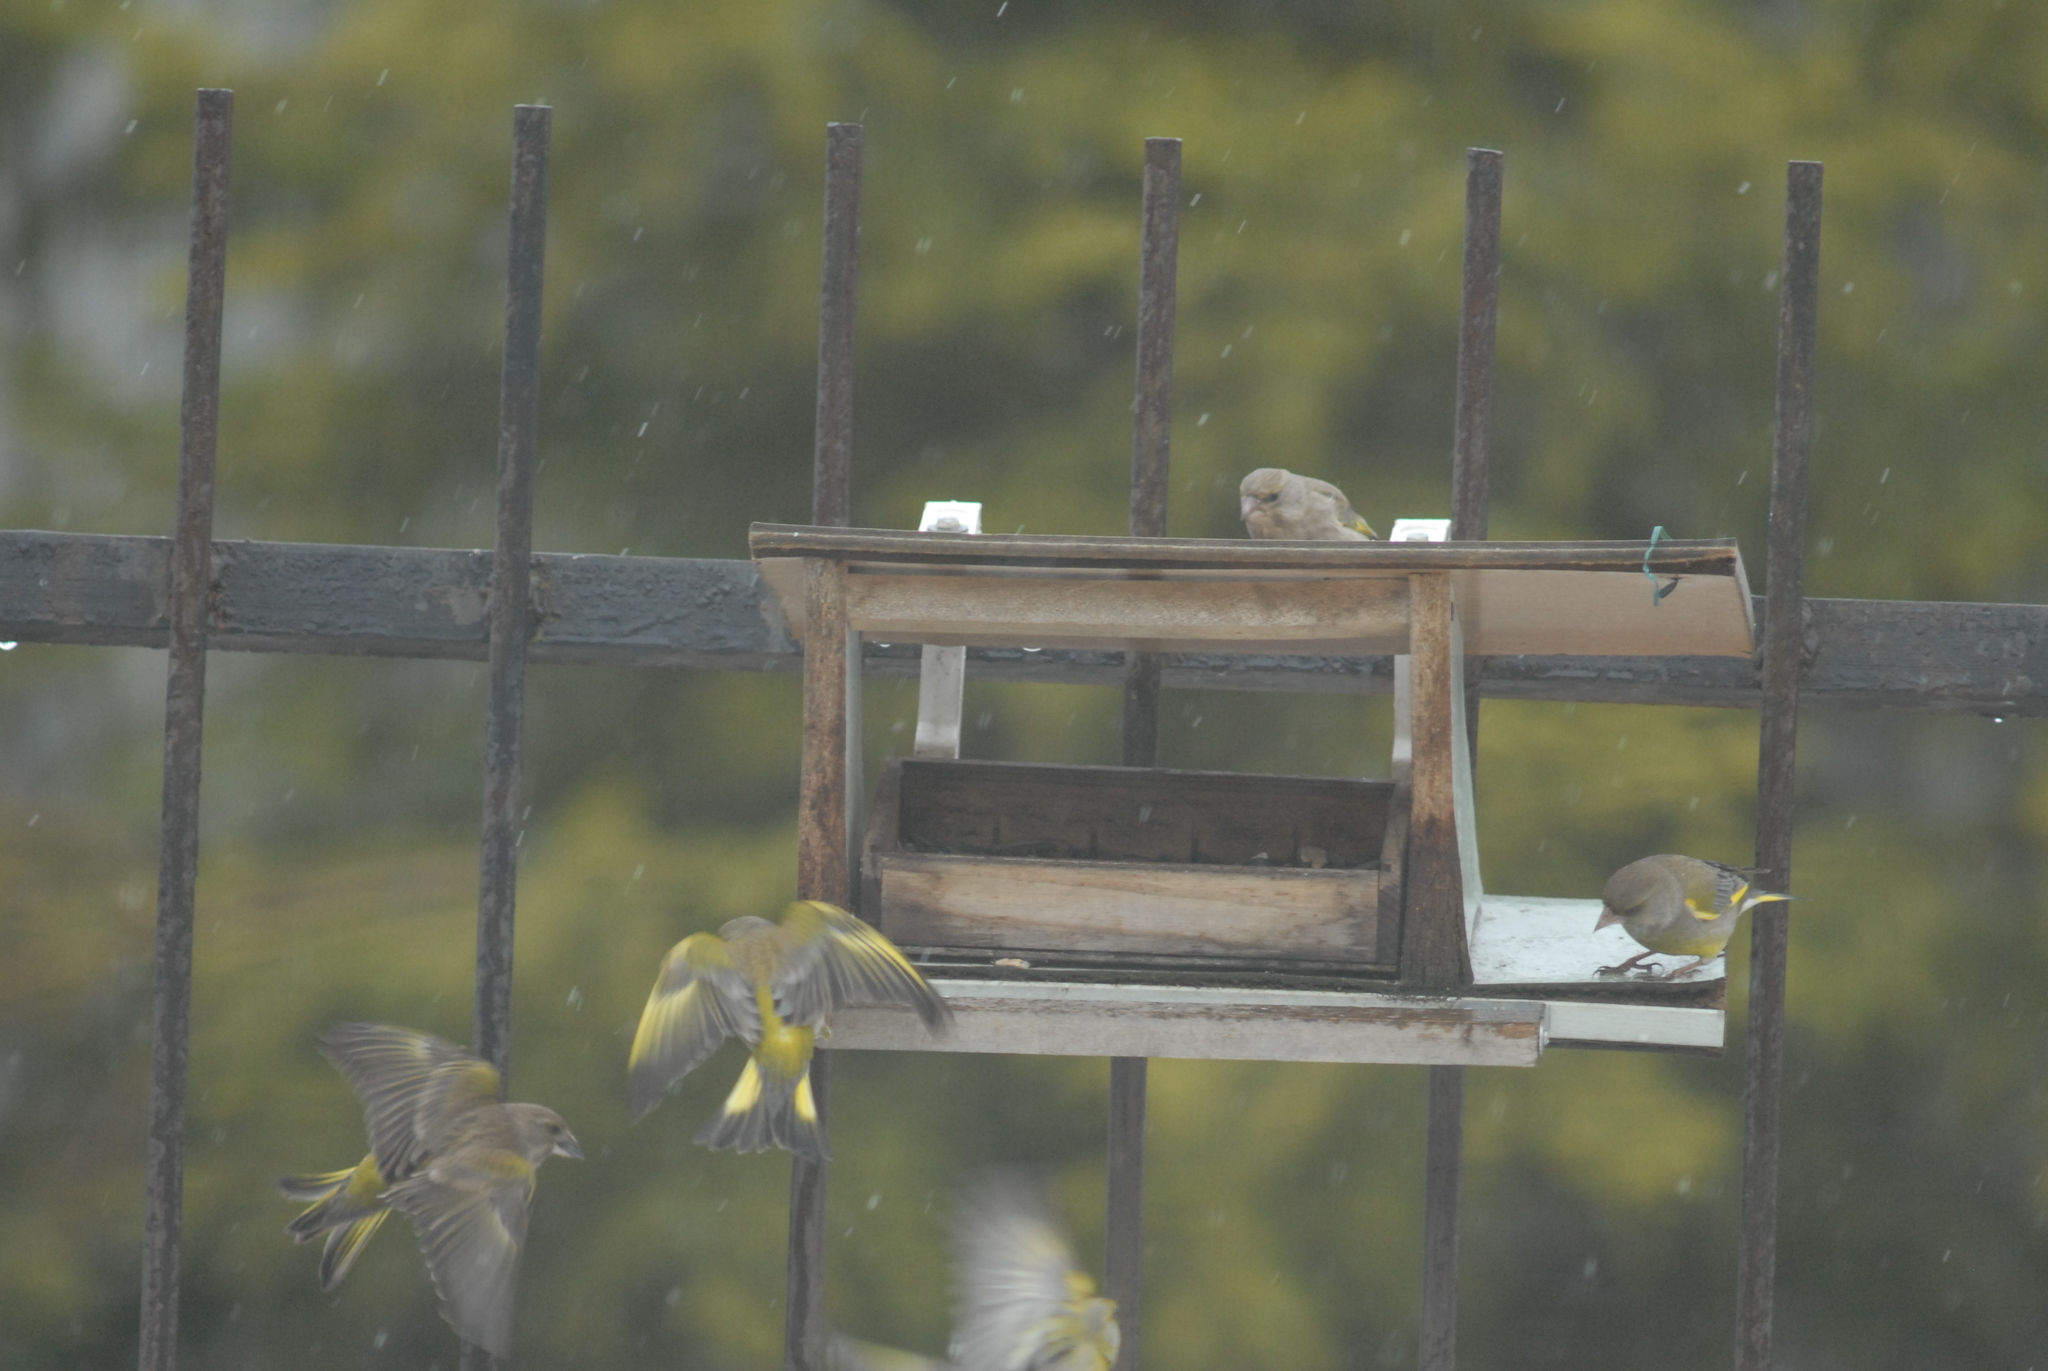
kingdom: Plantae
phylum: Tracheophyta
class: Liliopsida
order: Poales
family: Poaceae
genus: Chloris
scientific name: Chloris chloris
